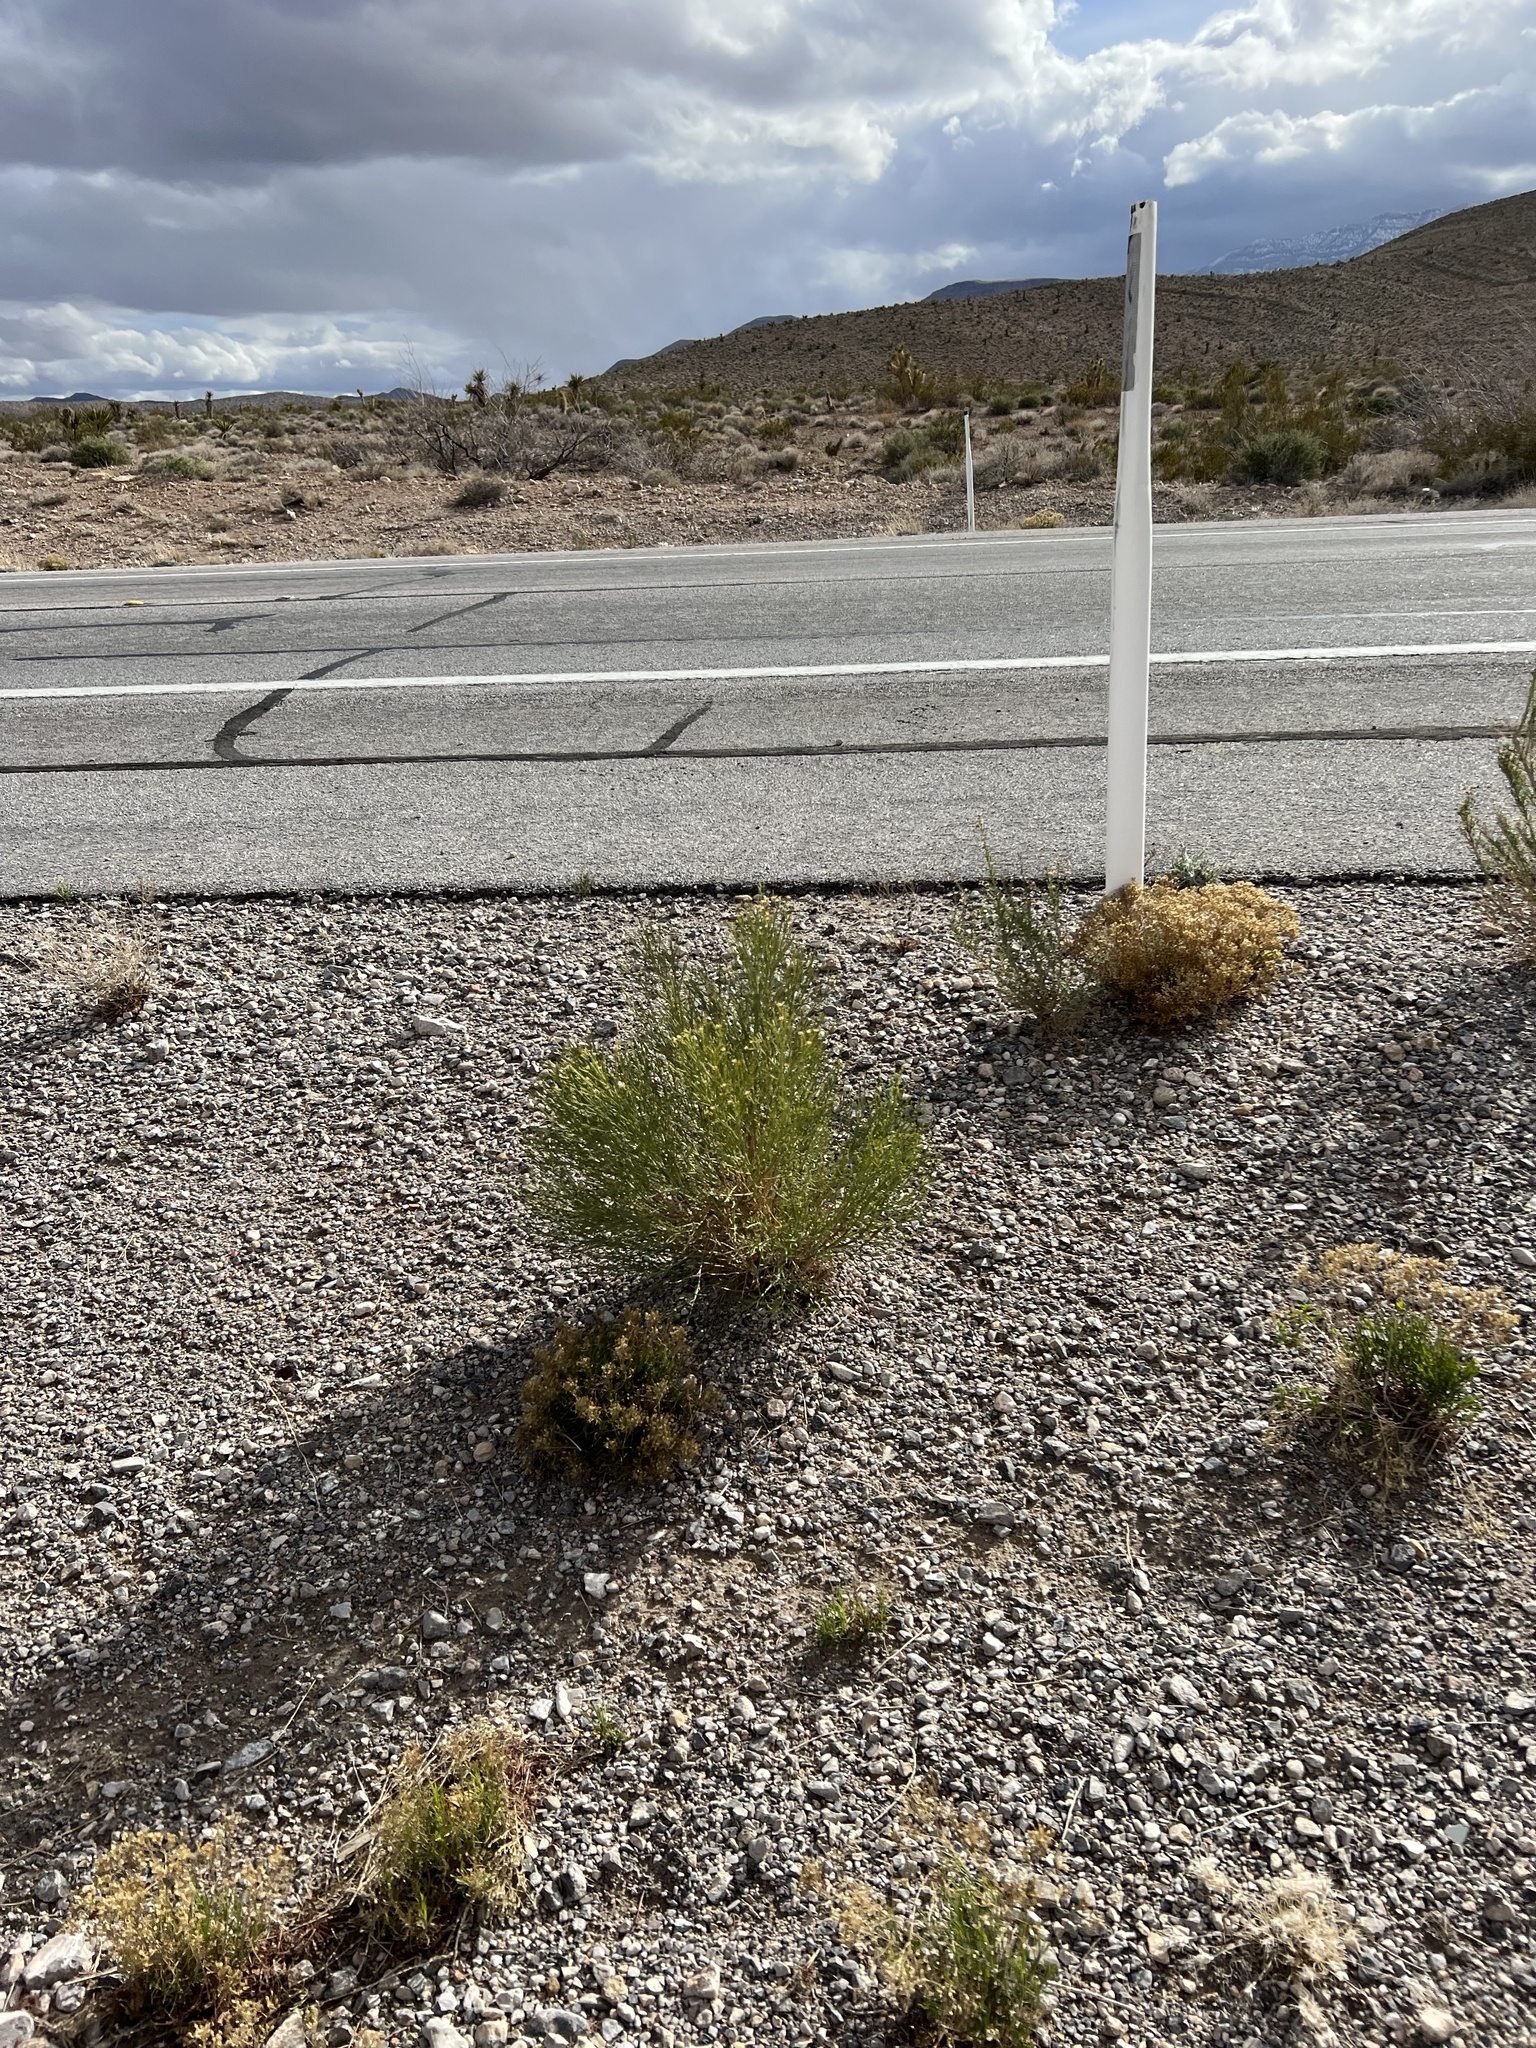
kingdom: Plantae
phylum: Tracheophyta
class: Magnoliopsida
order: Asterales
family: Asteraceae
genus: Baccharis
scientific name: Baccharis sarothroides
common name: Desert-broom
